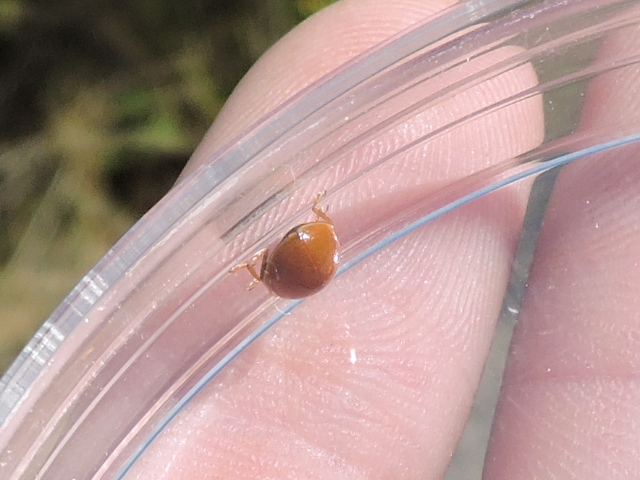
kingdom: Animalia
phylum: Arthropoda
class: Insecta
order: Coleoptera
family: Coccinellidae
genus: Cycloneda
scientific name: Cycloneda munda
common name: Polished lady beetle
